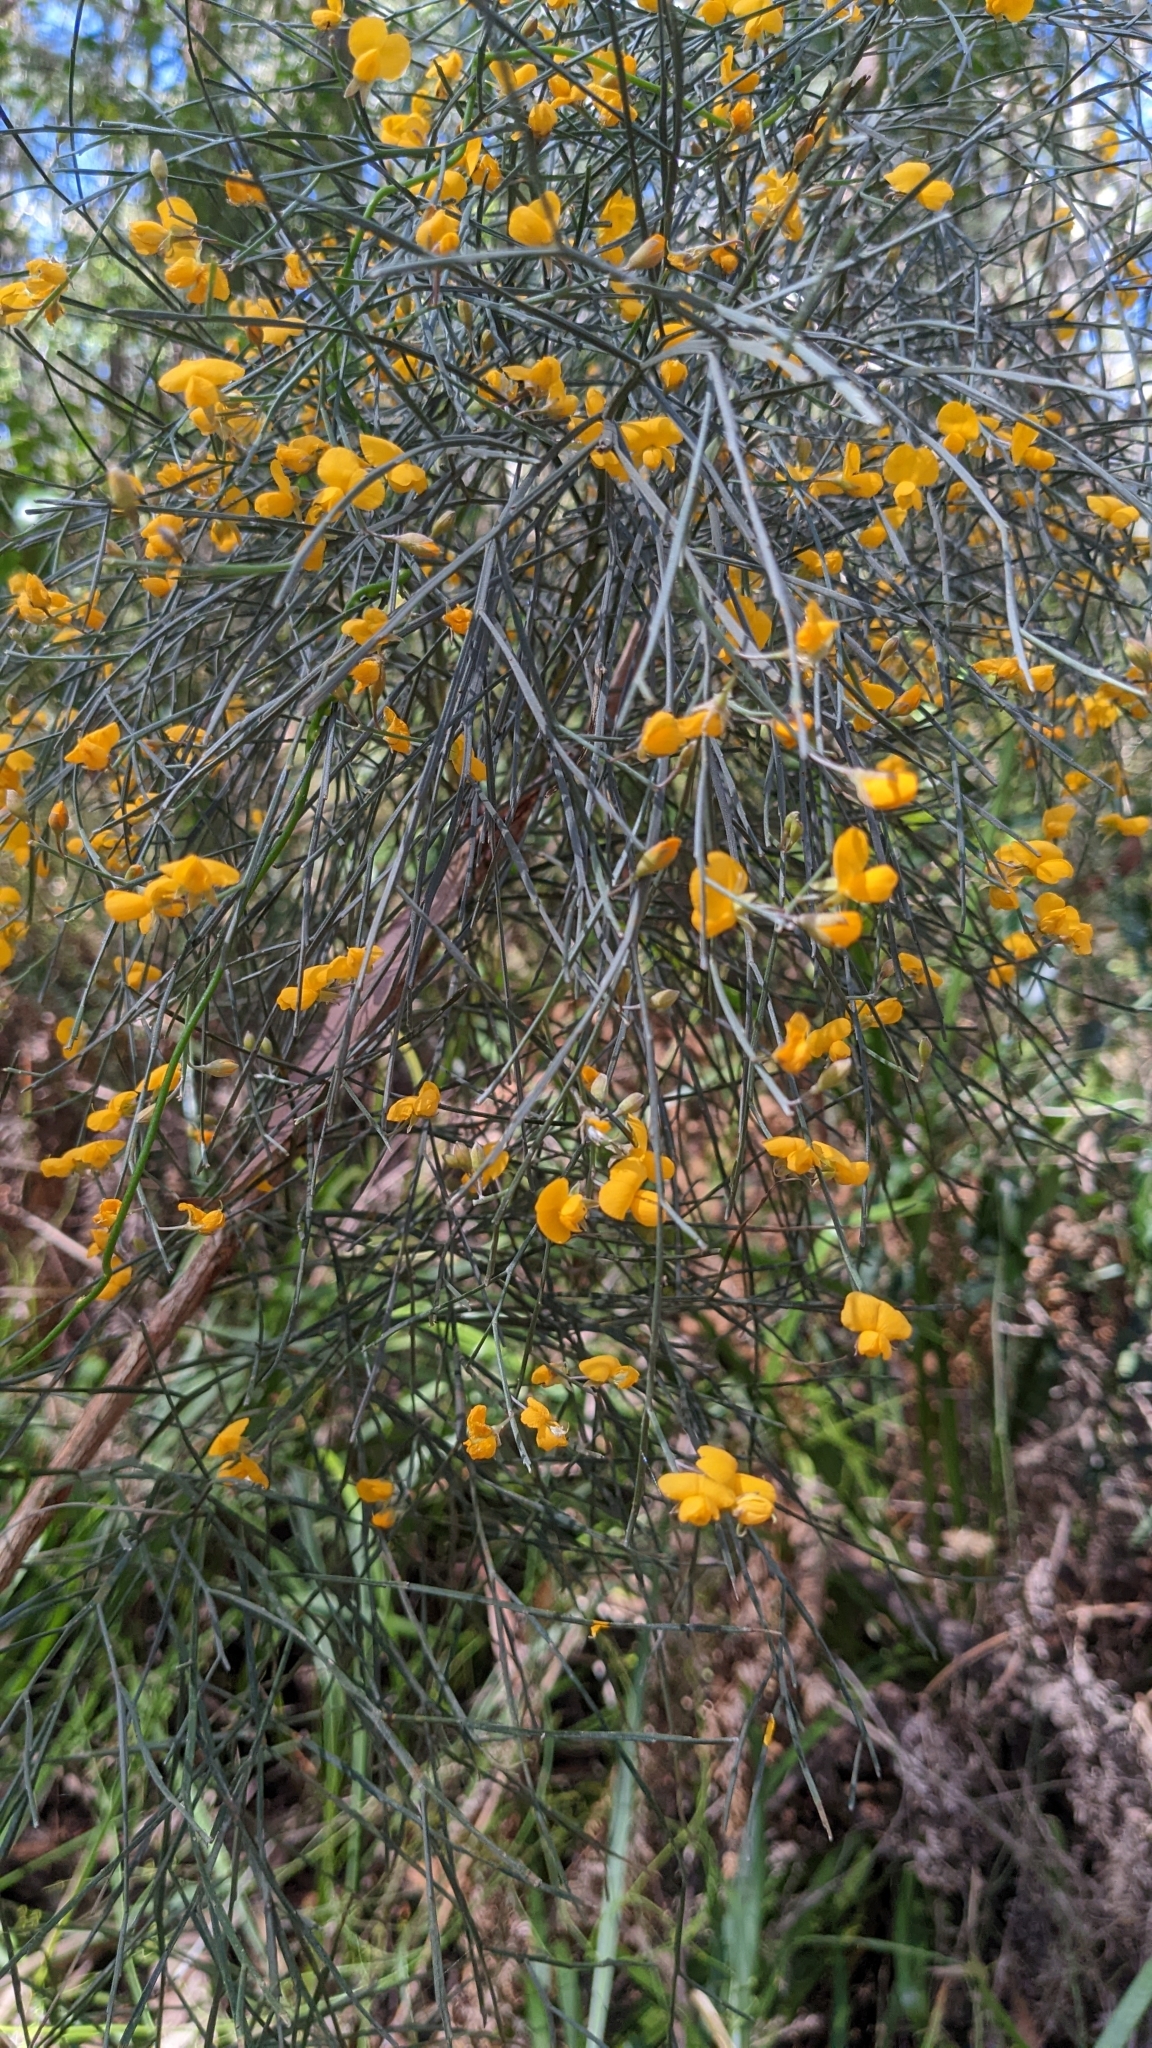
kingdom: Plantae
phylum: Tracheophyta
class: Magnoliopsida
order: Fabales
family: Fabaceae
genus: Jacksonia
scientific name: Jacksonia scoparia
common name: Dogwood
